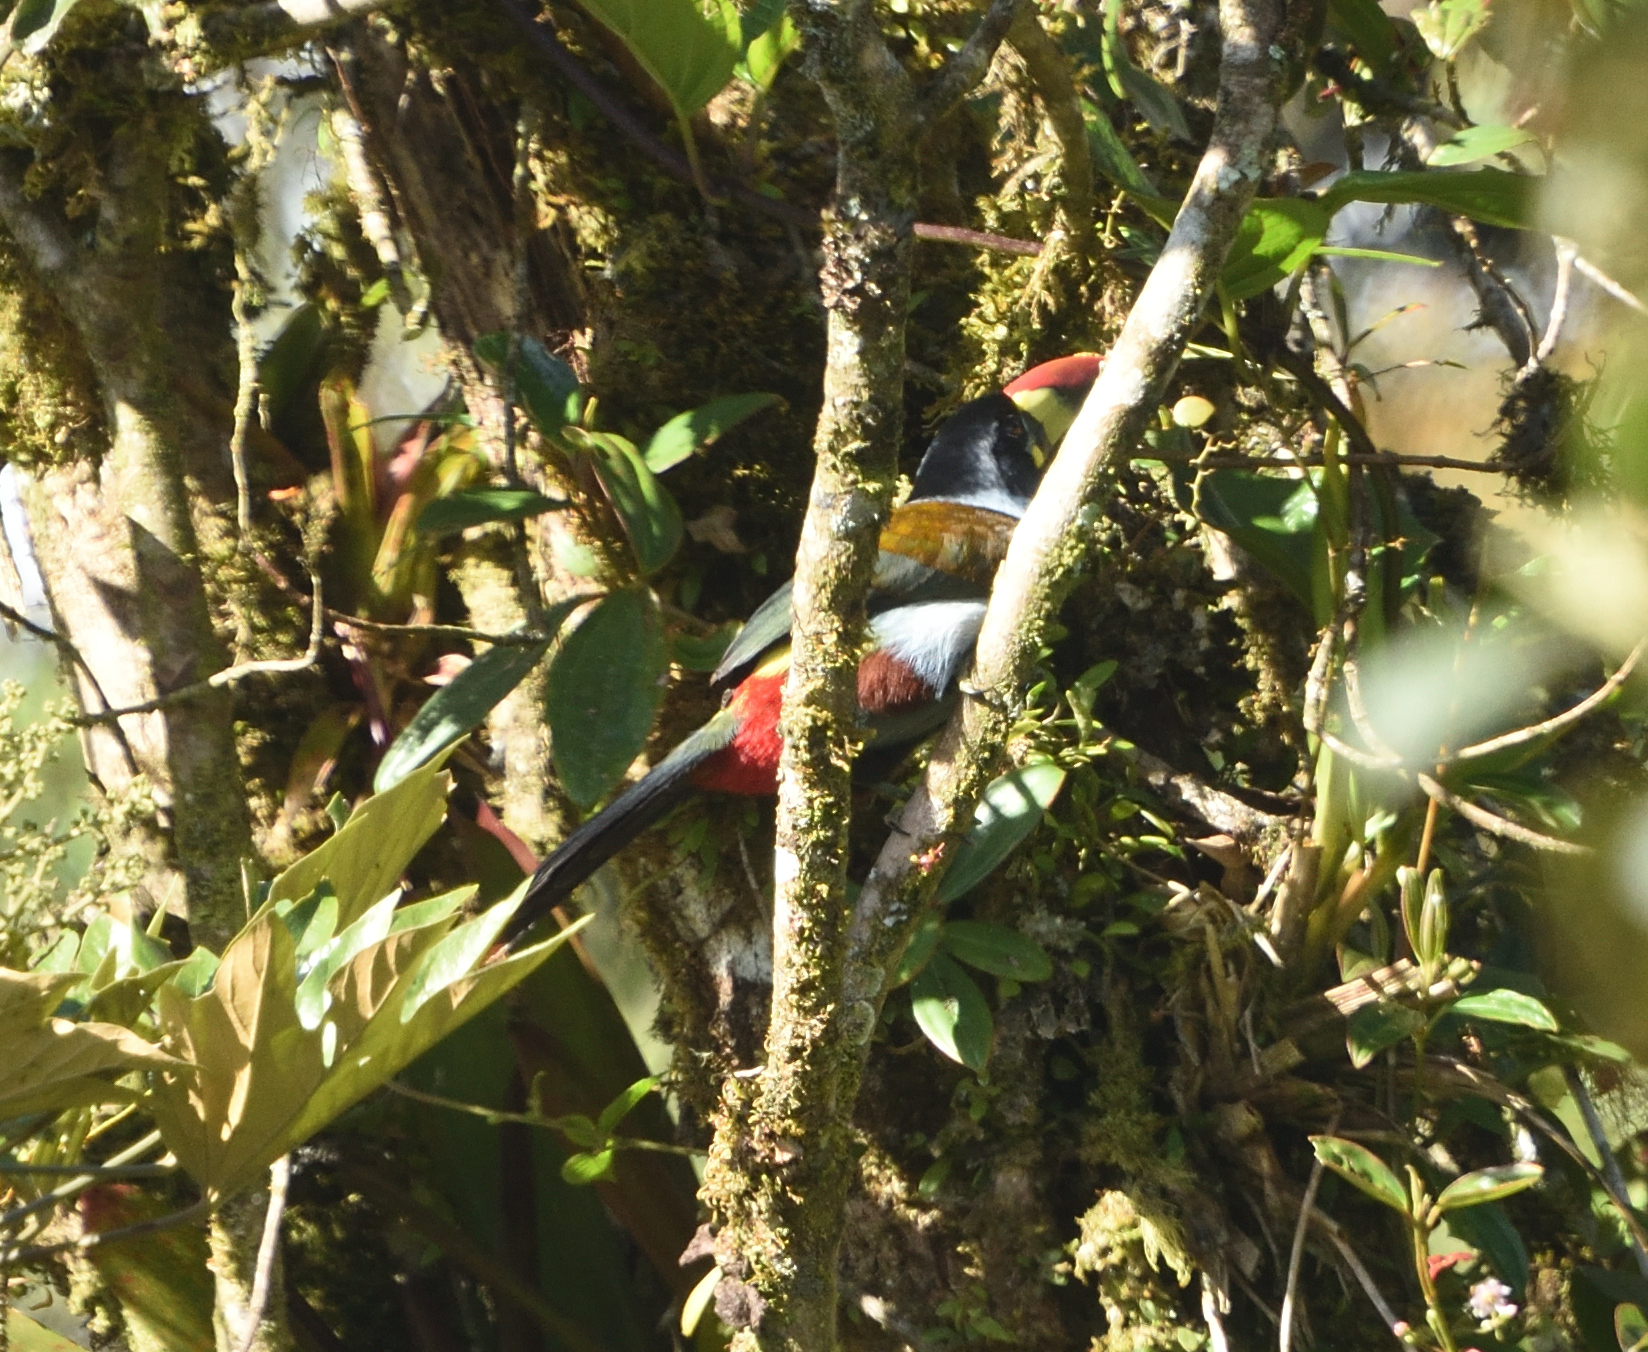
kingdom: Animalia
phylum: Chordata
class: Aves
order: Piciformes
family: Ramphastidae
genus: Andigena
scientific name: Andigena hypoglauca
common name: Grey-breasted mountain toucan
